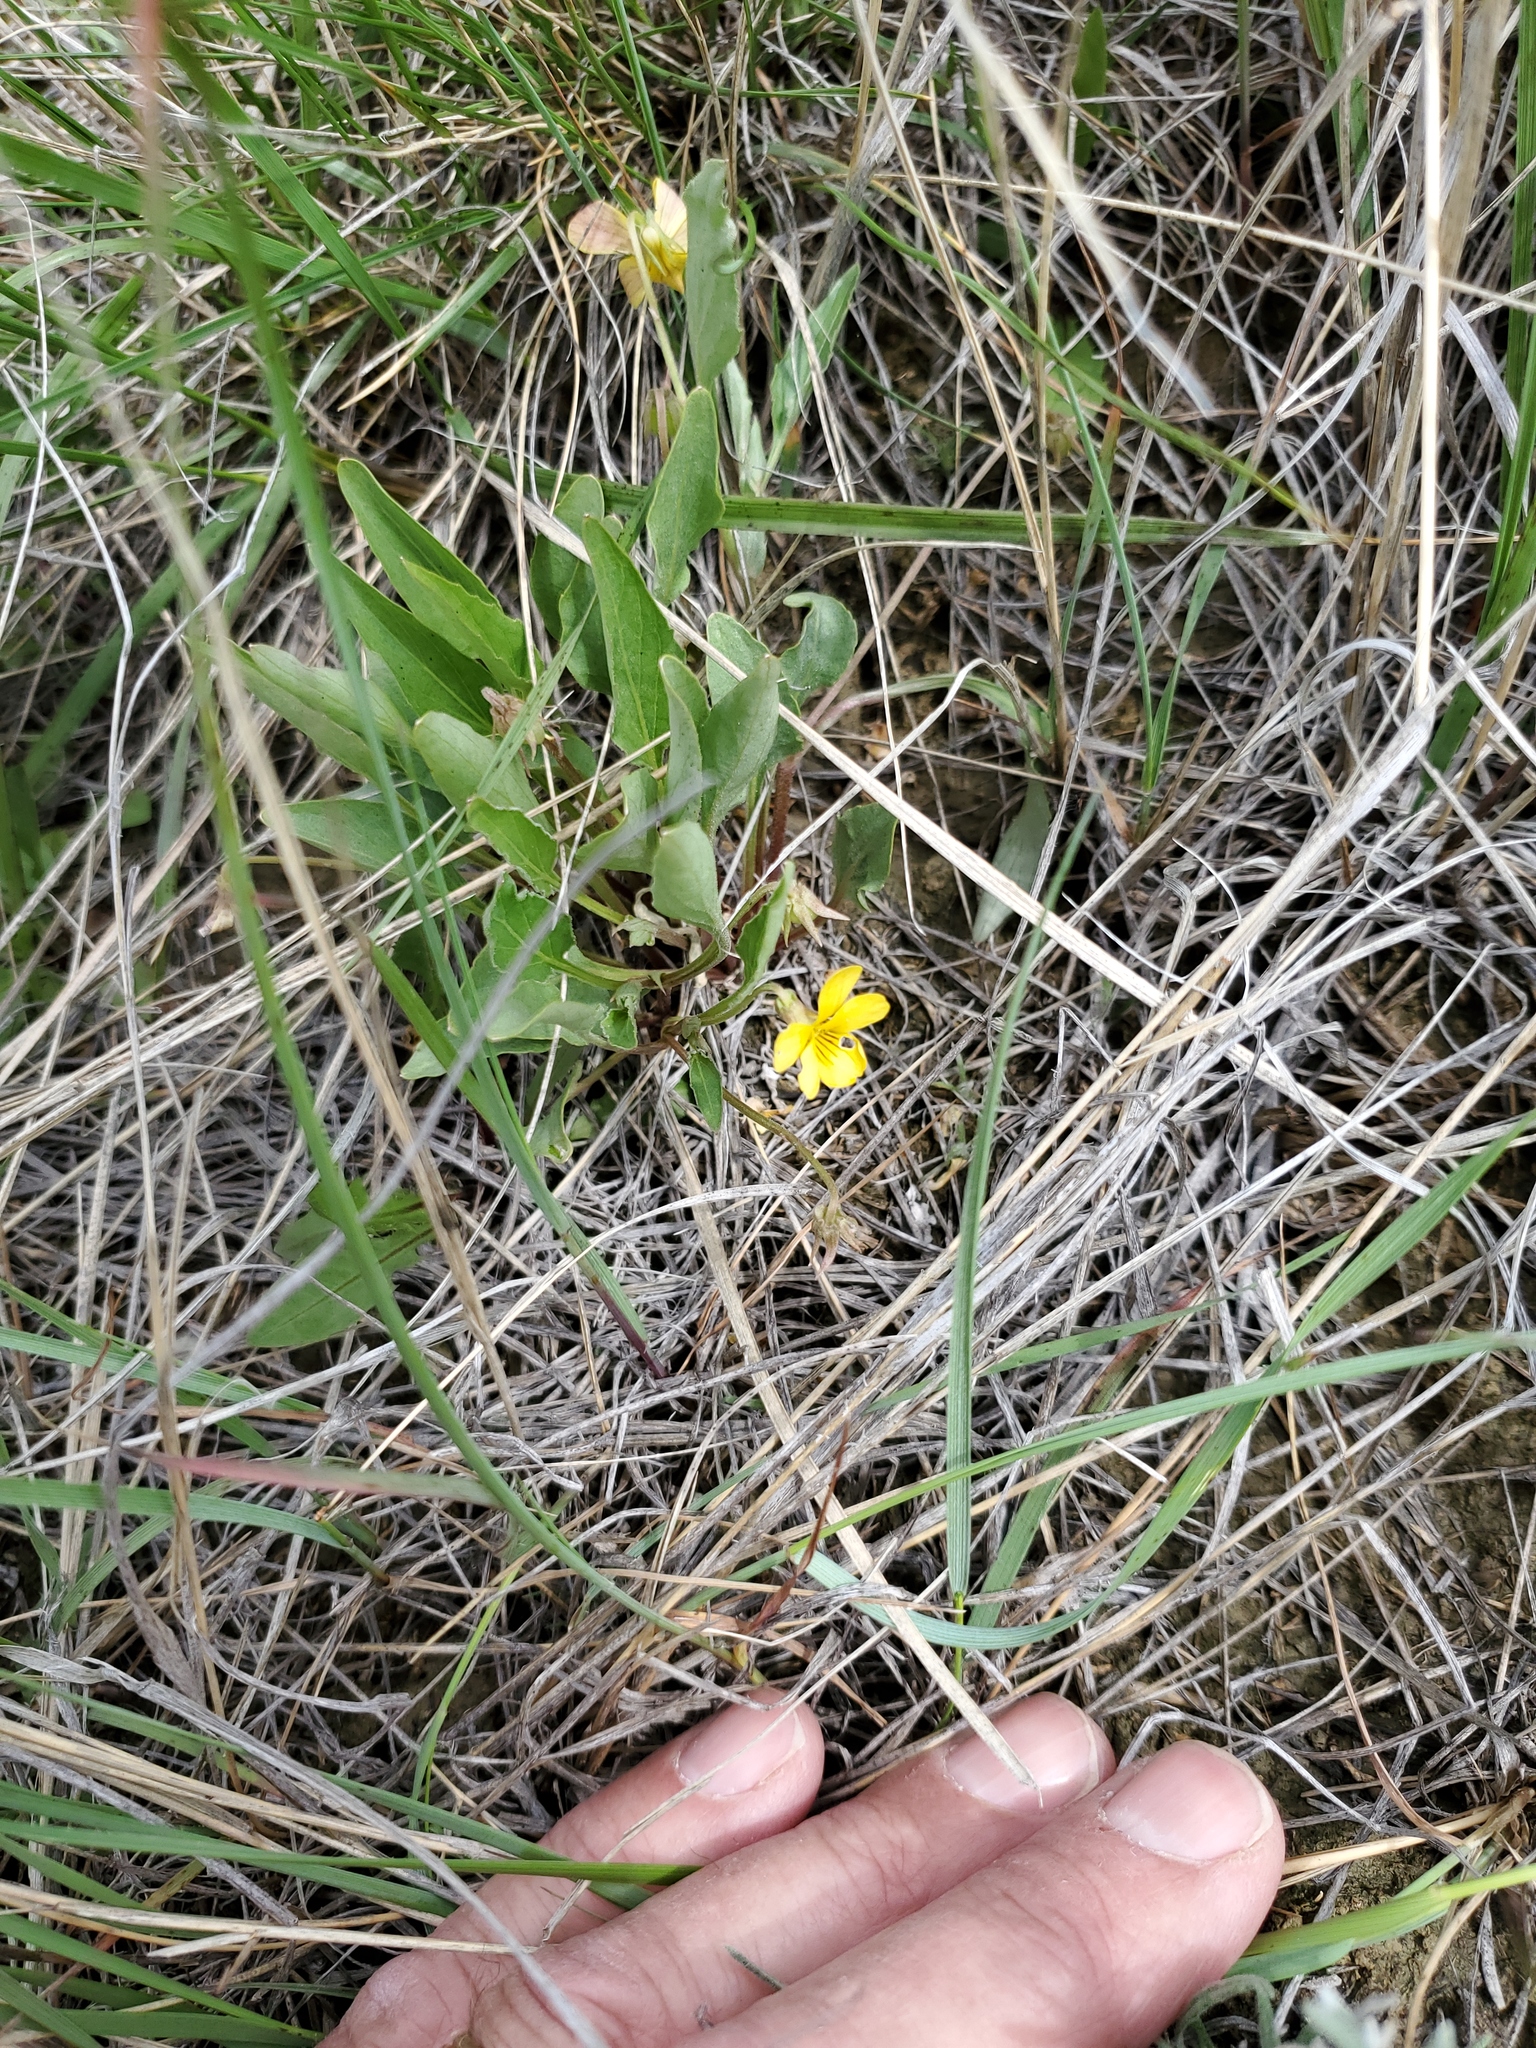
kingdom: Plantae
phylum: Tracheophyta
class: Magnoliopsida
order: Malpighiales
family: Violaceae
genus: Viola
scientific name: Viola nuttallii
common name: Yellow prairie violet
